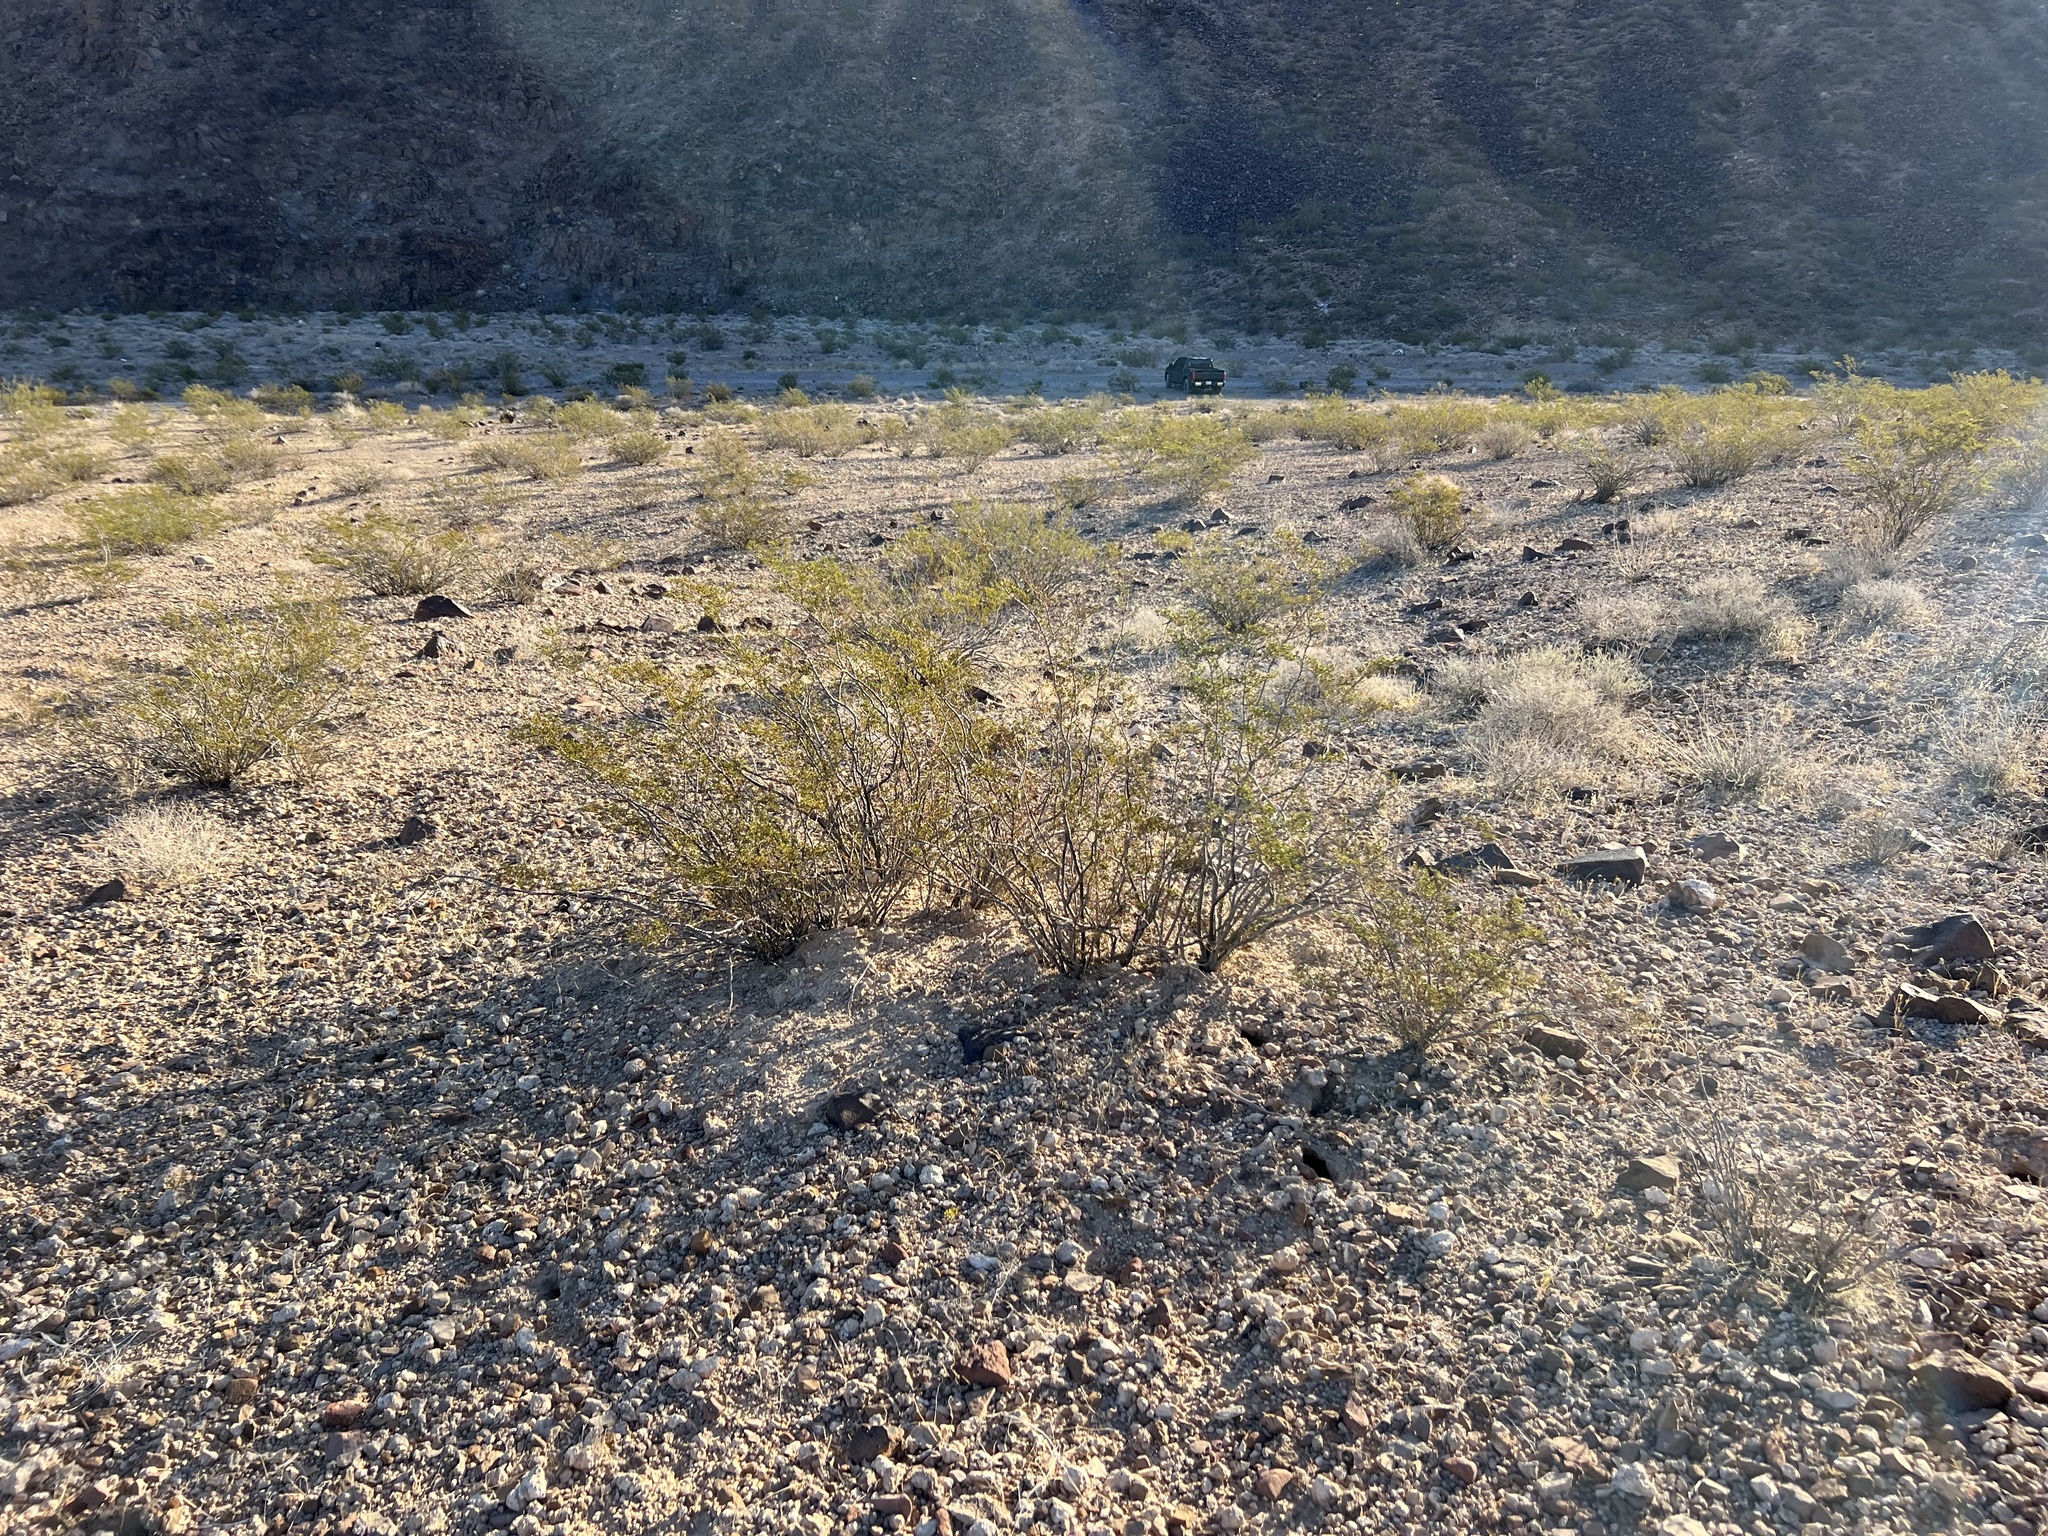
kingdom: Plantae
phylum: Tracheophyta
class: Magnoliopsida
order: Zygophyllales
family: Zygophyllaceae
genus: Larrea
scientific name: Larrea tridentata
